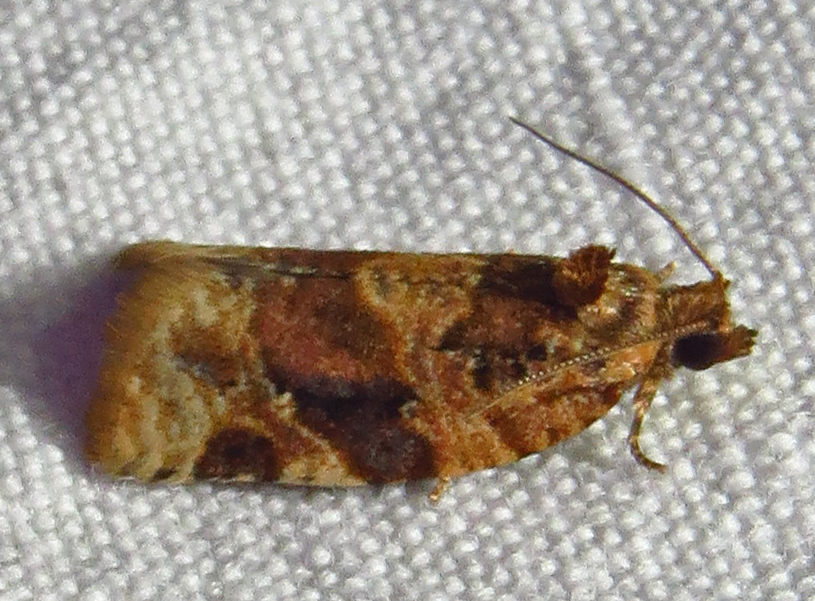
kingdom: Animalia
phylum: Arthropoda
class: Insecta
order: Lepidoptera
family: Tortricidae
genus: Argyrotaenia
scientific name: Argyrotaenia velutinana
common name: Red-banded leafroller moth
